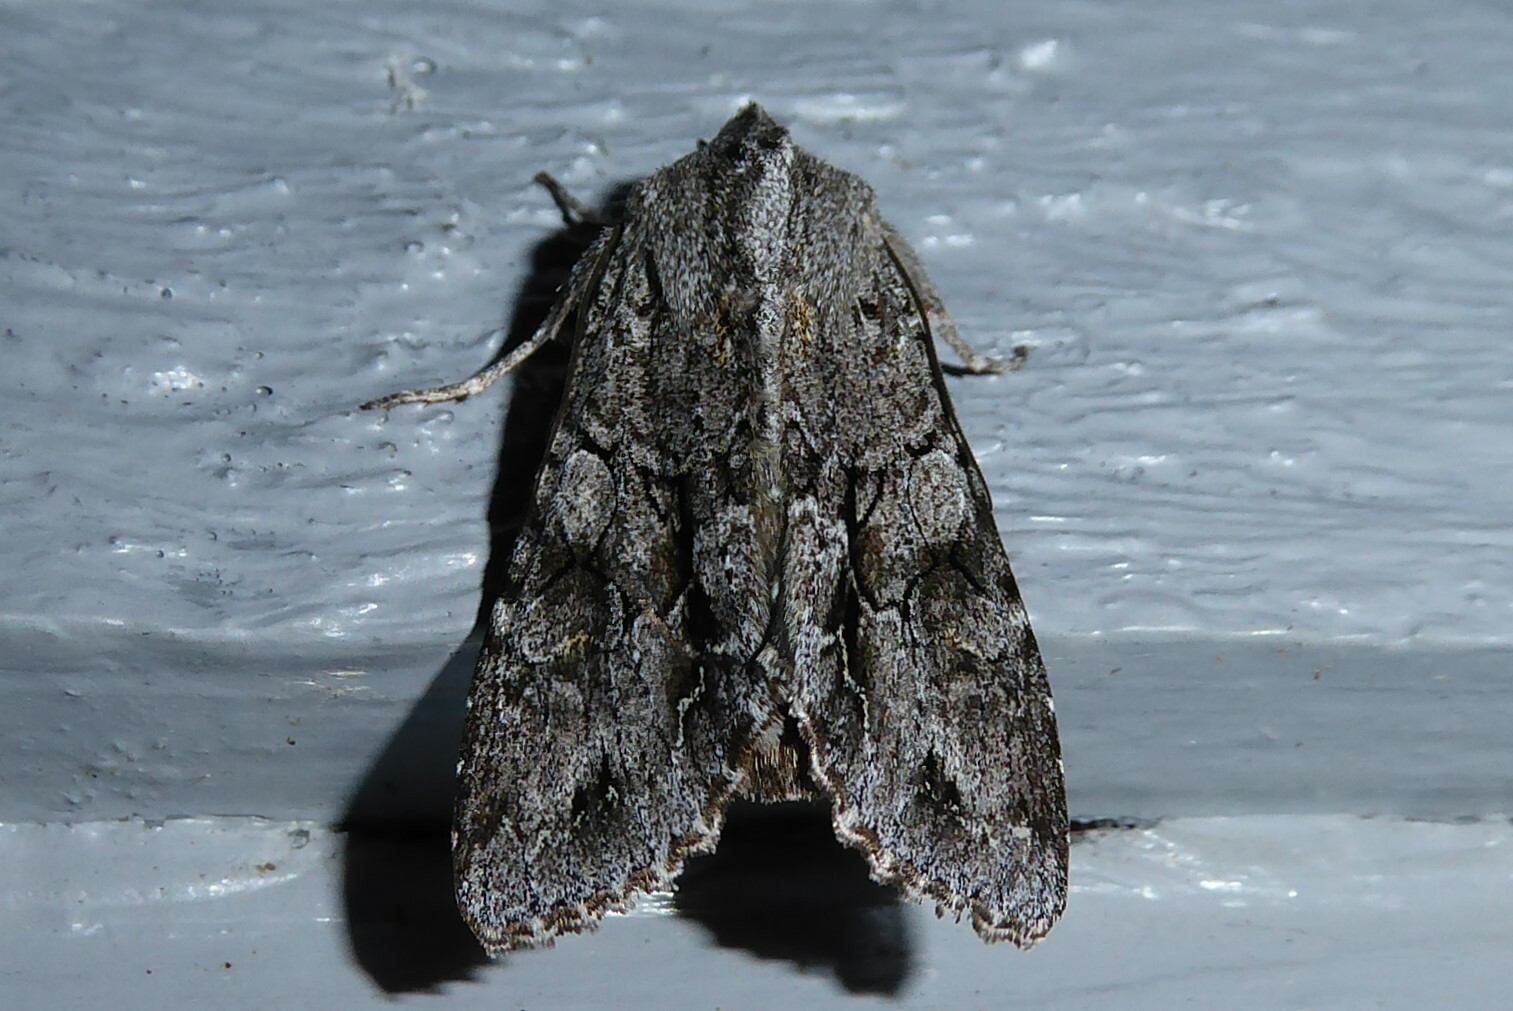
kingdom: Animalia
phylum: Arthropoda
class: Insecta
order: Lepidoptera
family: Noctuidae
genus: Ichneutica
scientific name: Ichneutica
